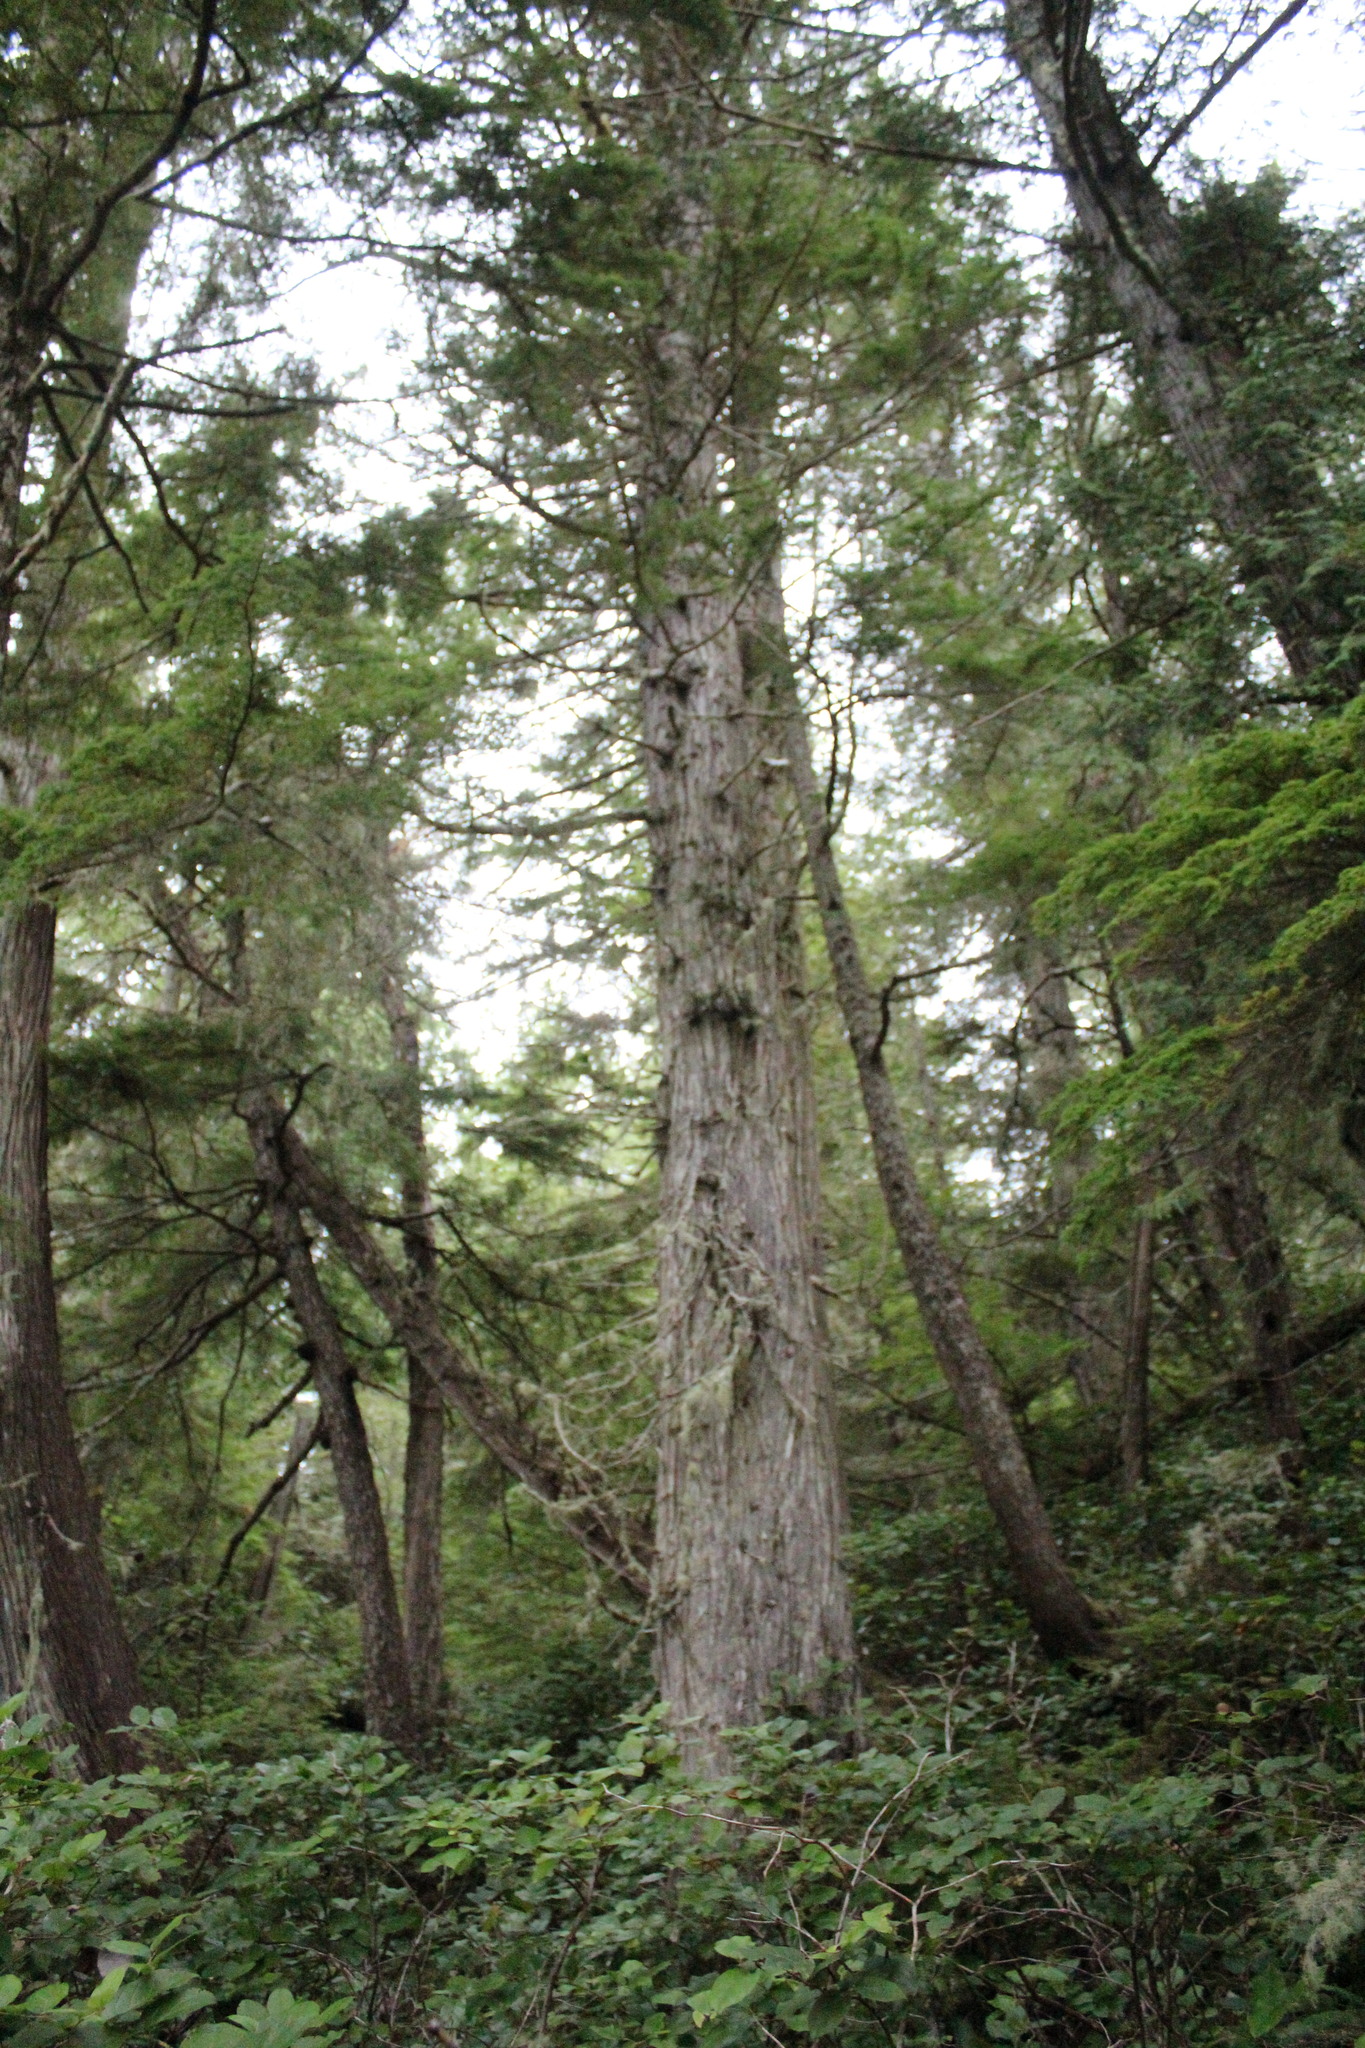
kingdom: Plantae
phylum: Tracheophyta
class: Pinopsida
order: Pinales
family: Cupressaceae
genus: Thuja
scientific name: Thuja plicata
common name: Western red-cedar
